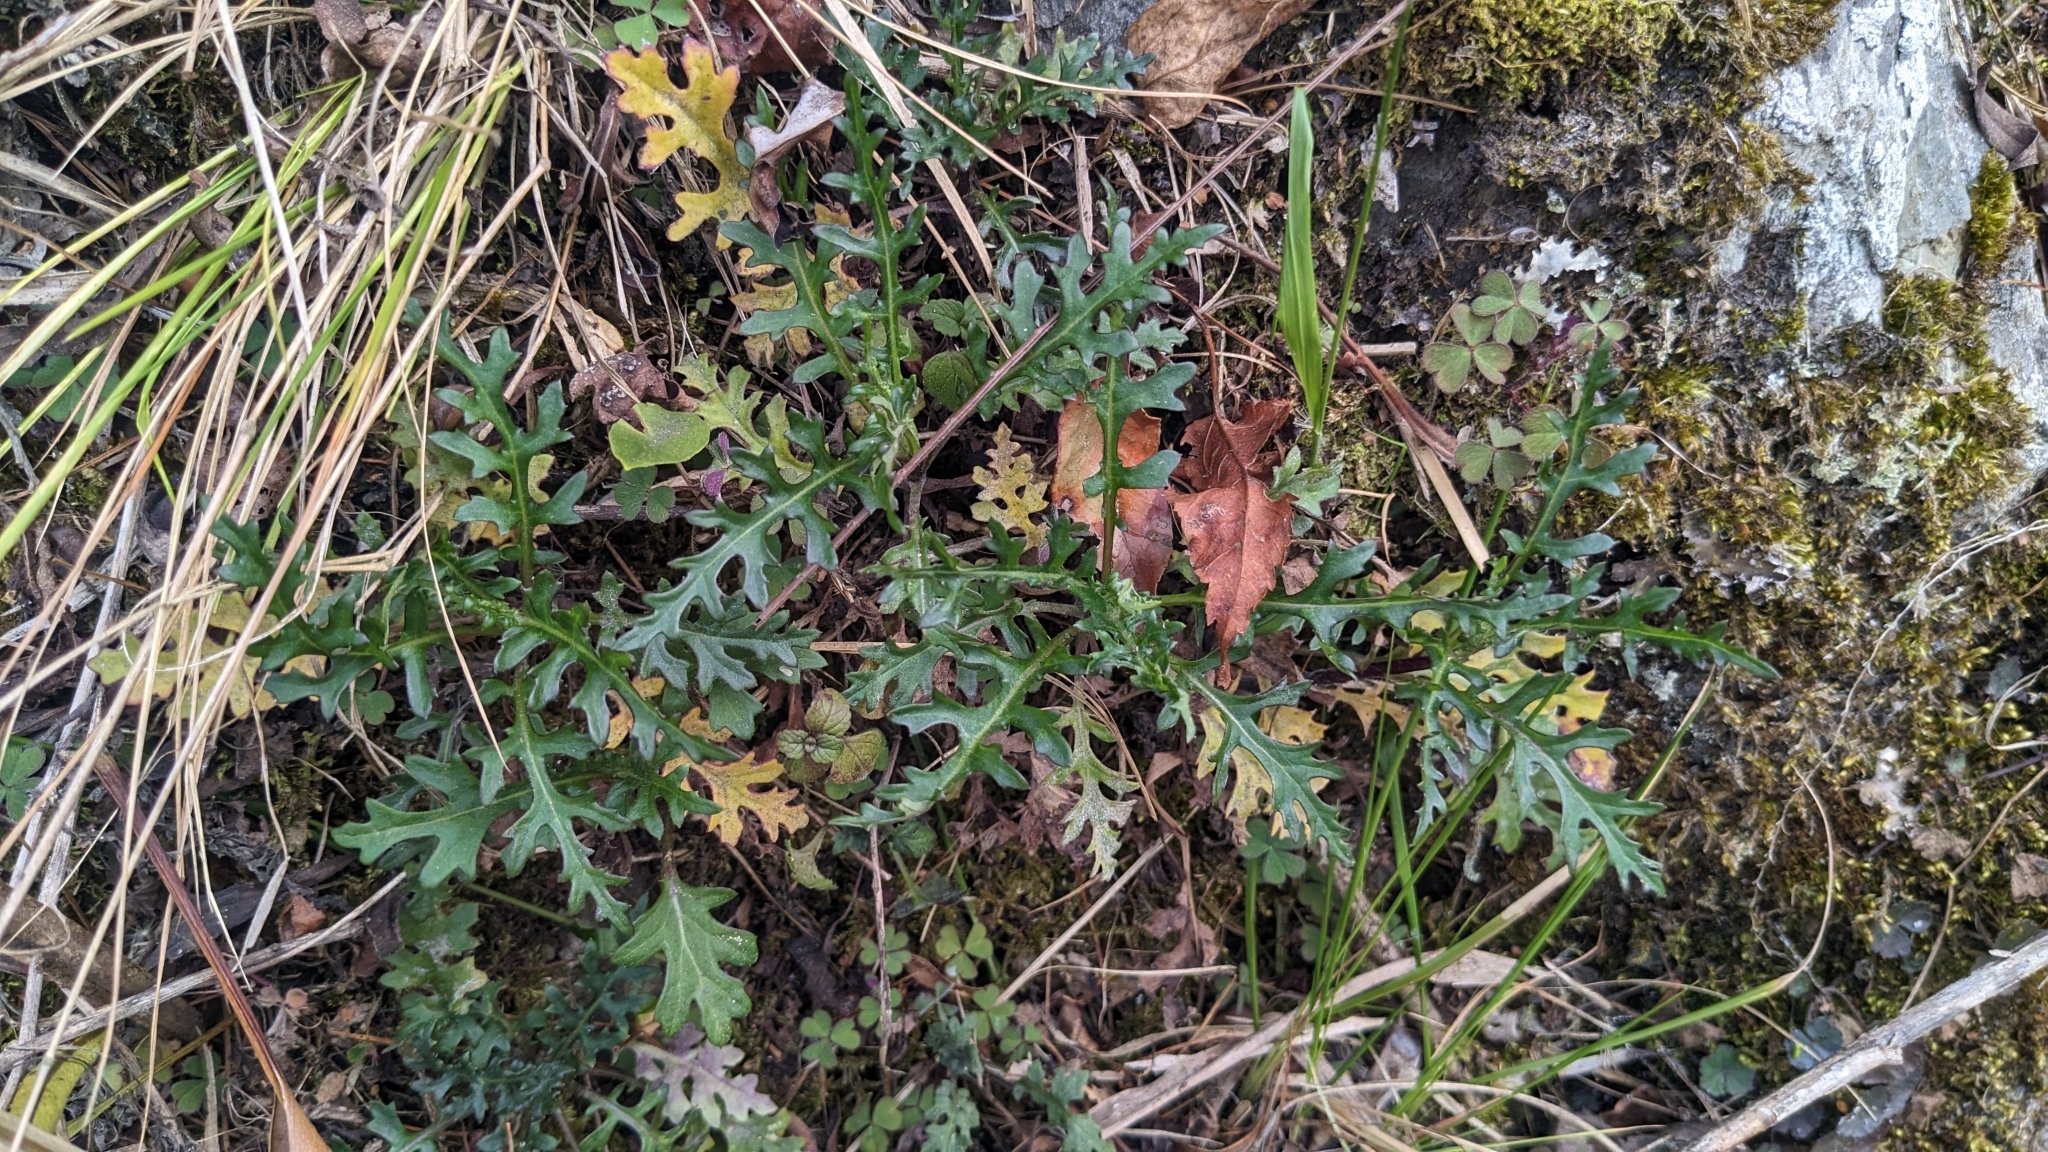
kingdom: Plantae
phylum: Tracheophyta
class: Magnoliopsida
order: Asterales
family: Asteraceae
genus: Jacobaea
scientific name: Jacobaea morrisonensis
